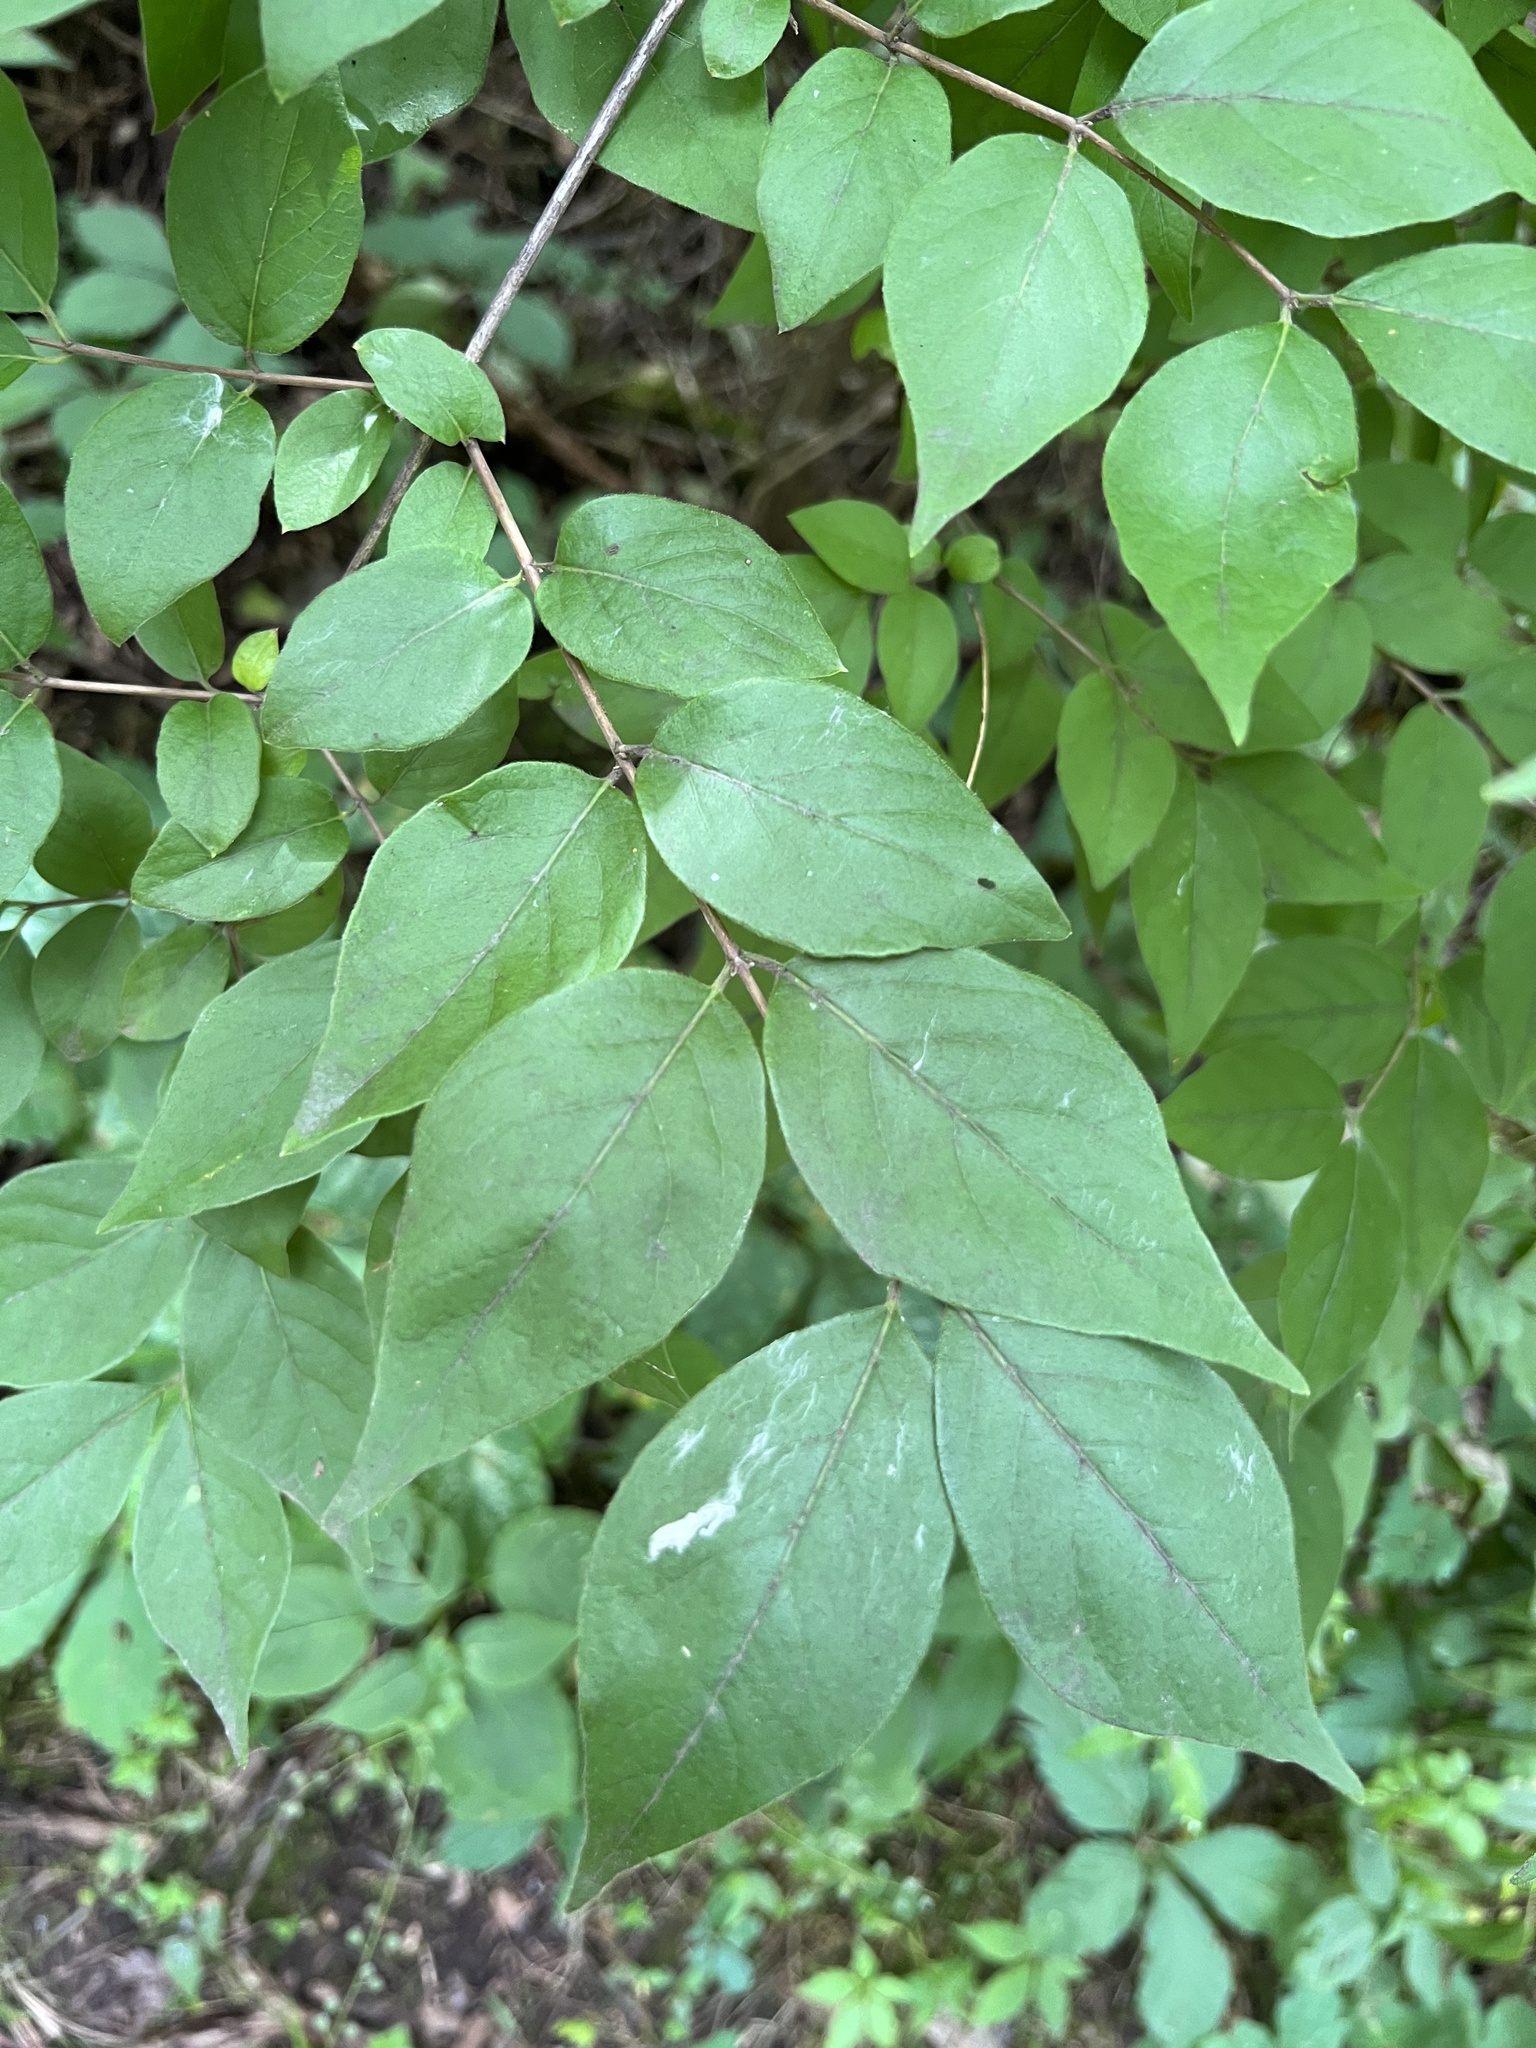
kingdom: Plantae
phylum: Tracheophyta
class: Magnoliopsida
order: Dipsacales
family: Caprifoliaceae
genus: Lonicera
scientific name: Lonicera maackii
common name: Amur honeysuckle
